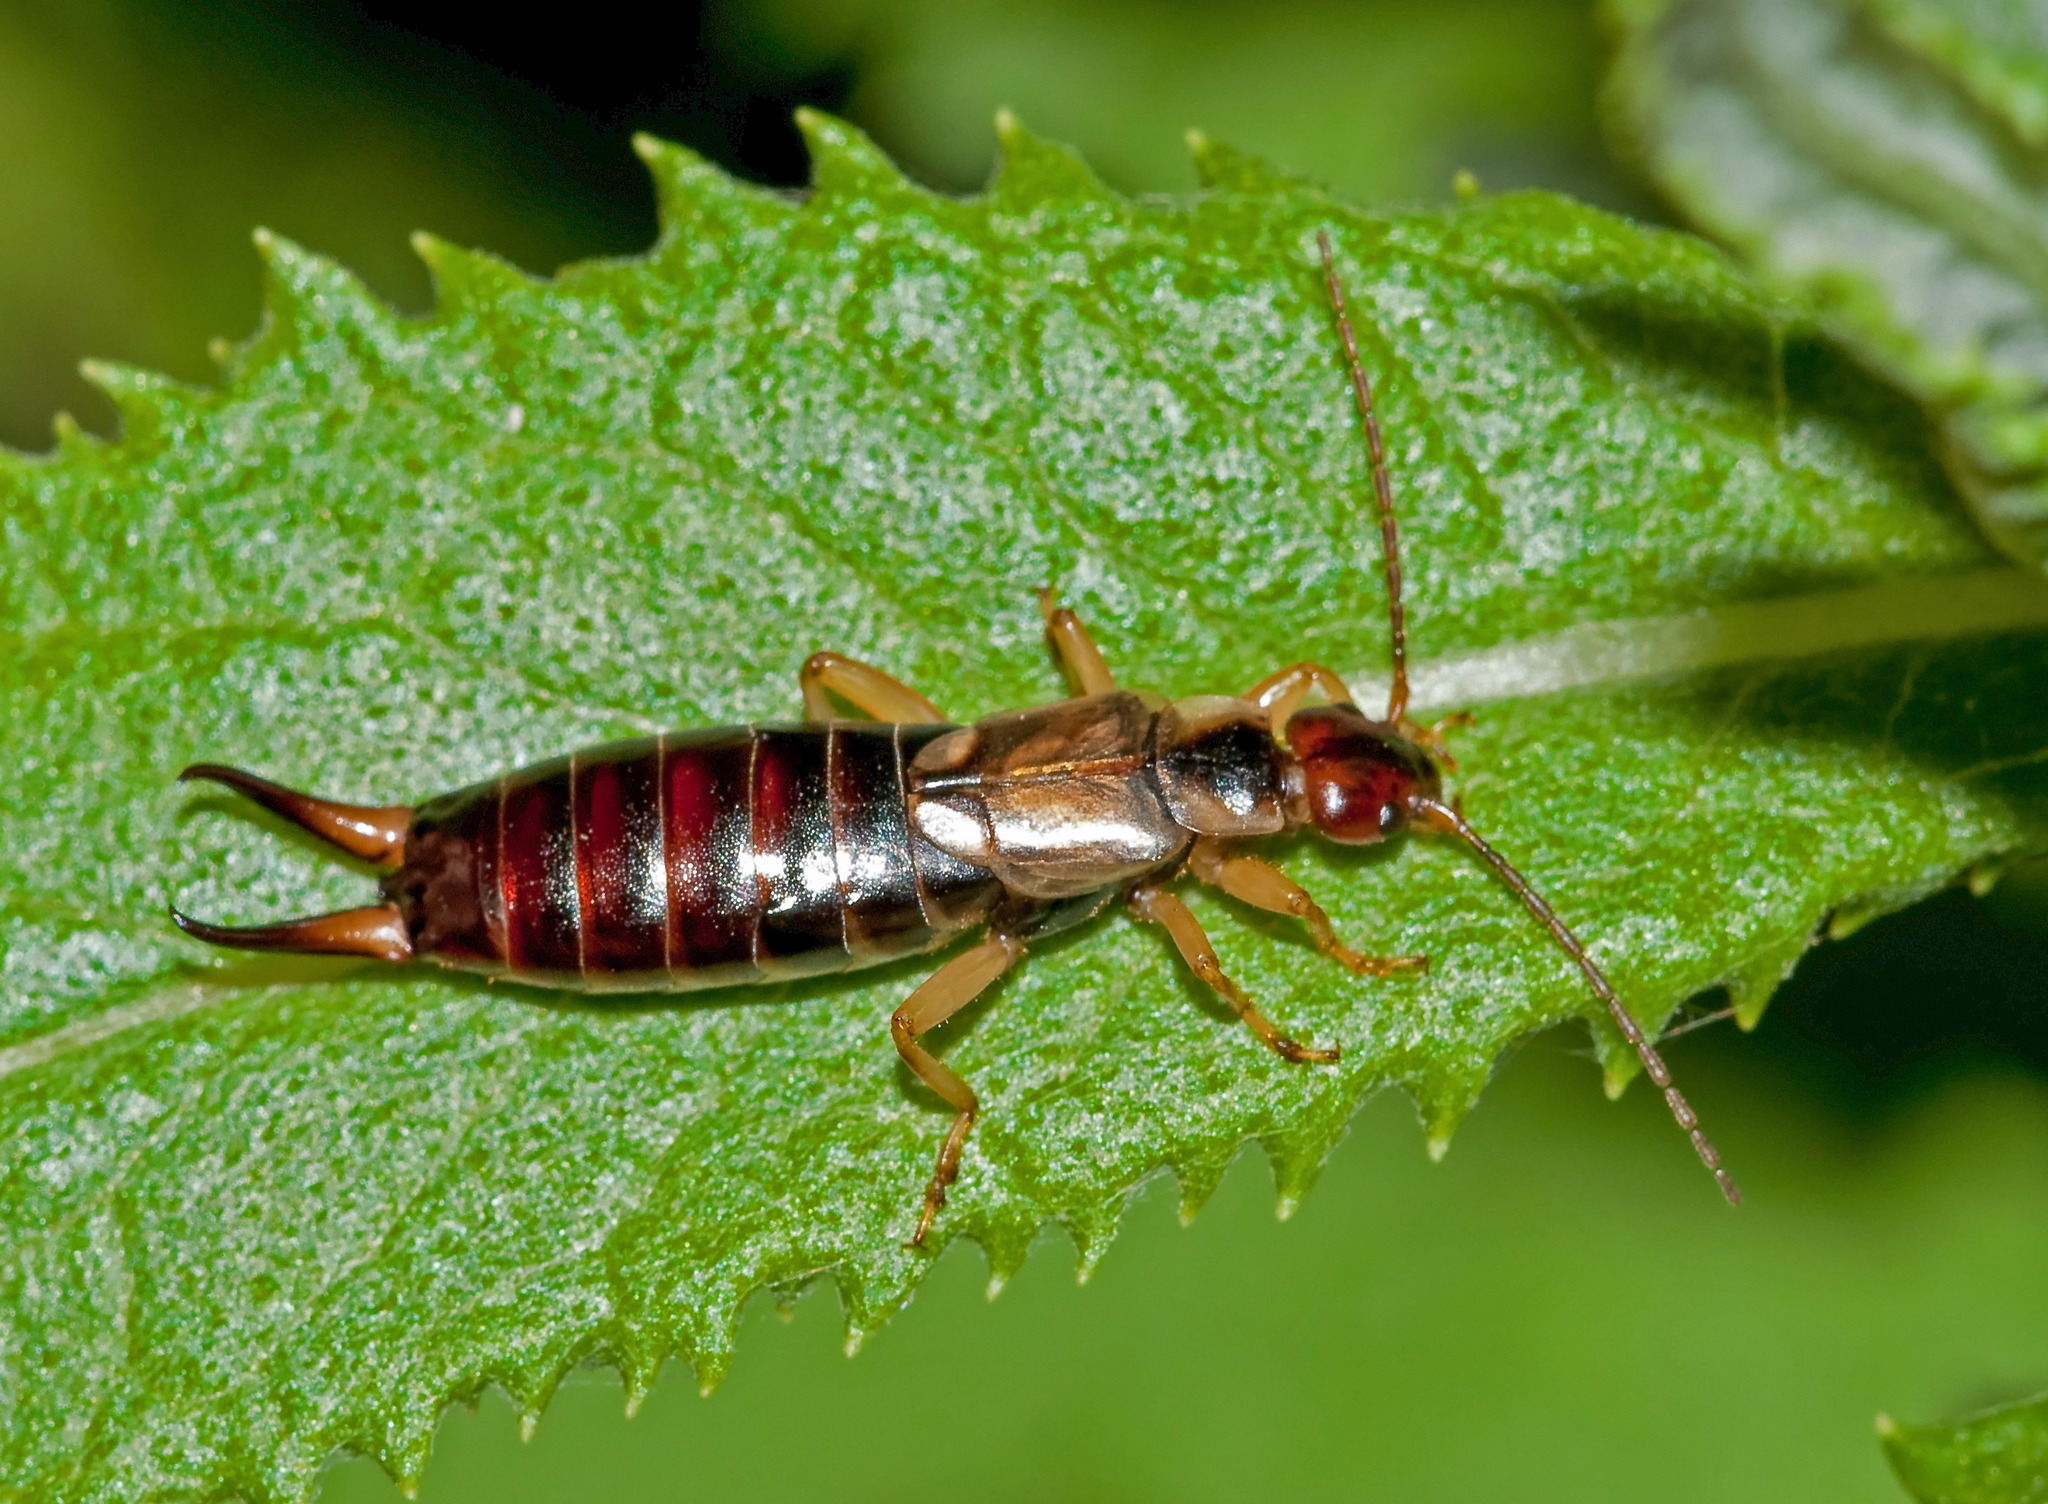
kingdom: Animalia
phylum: Arthropoda
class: Insecta
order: Dermaptera
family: Forficulidae
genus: Forficula
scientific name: Forficula dentata
